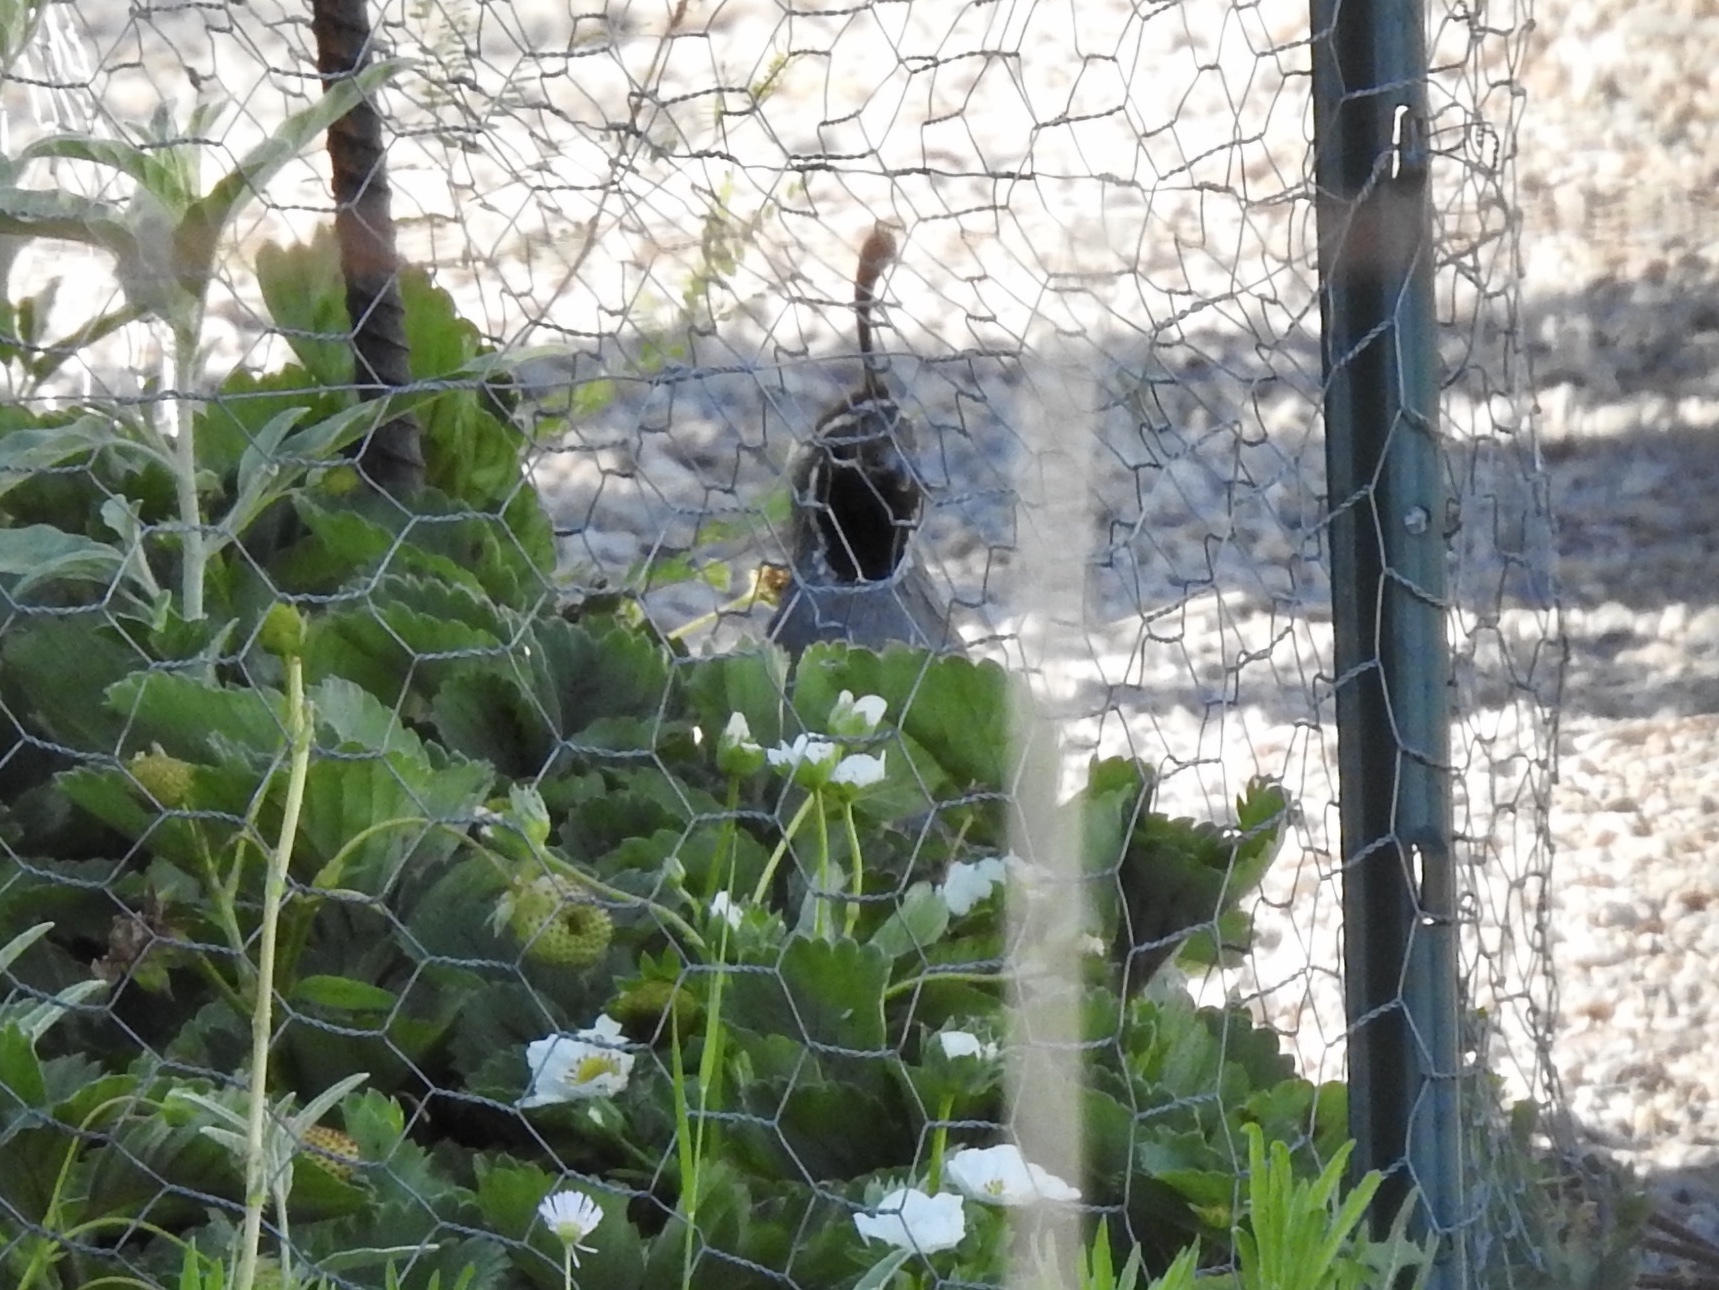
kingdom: Animalia
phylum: Chordata
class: Aves
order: Galliformes
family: Odontophoridae
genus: Callipepla
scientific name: Callipepla gambelii
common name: Gambel's quail
